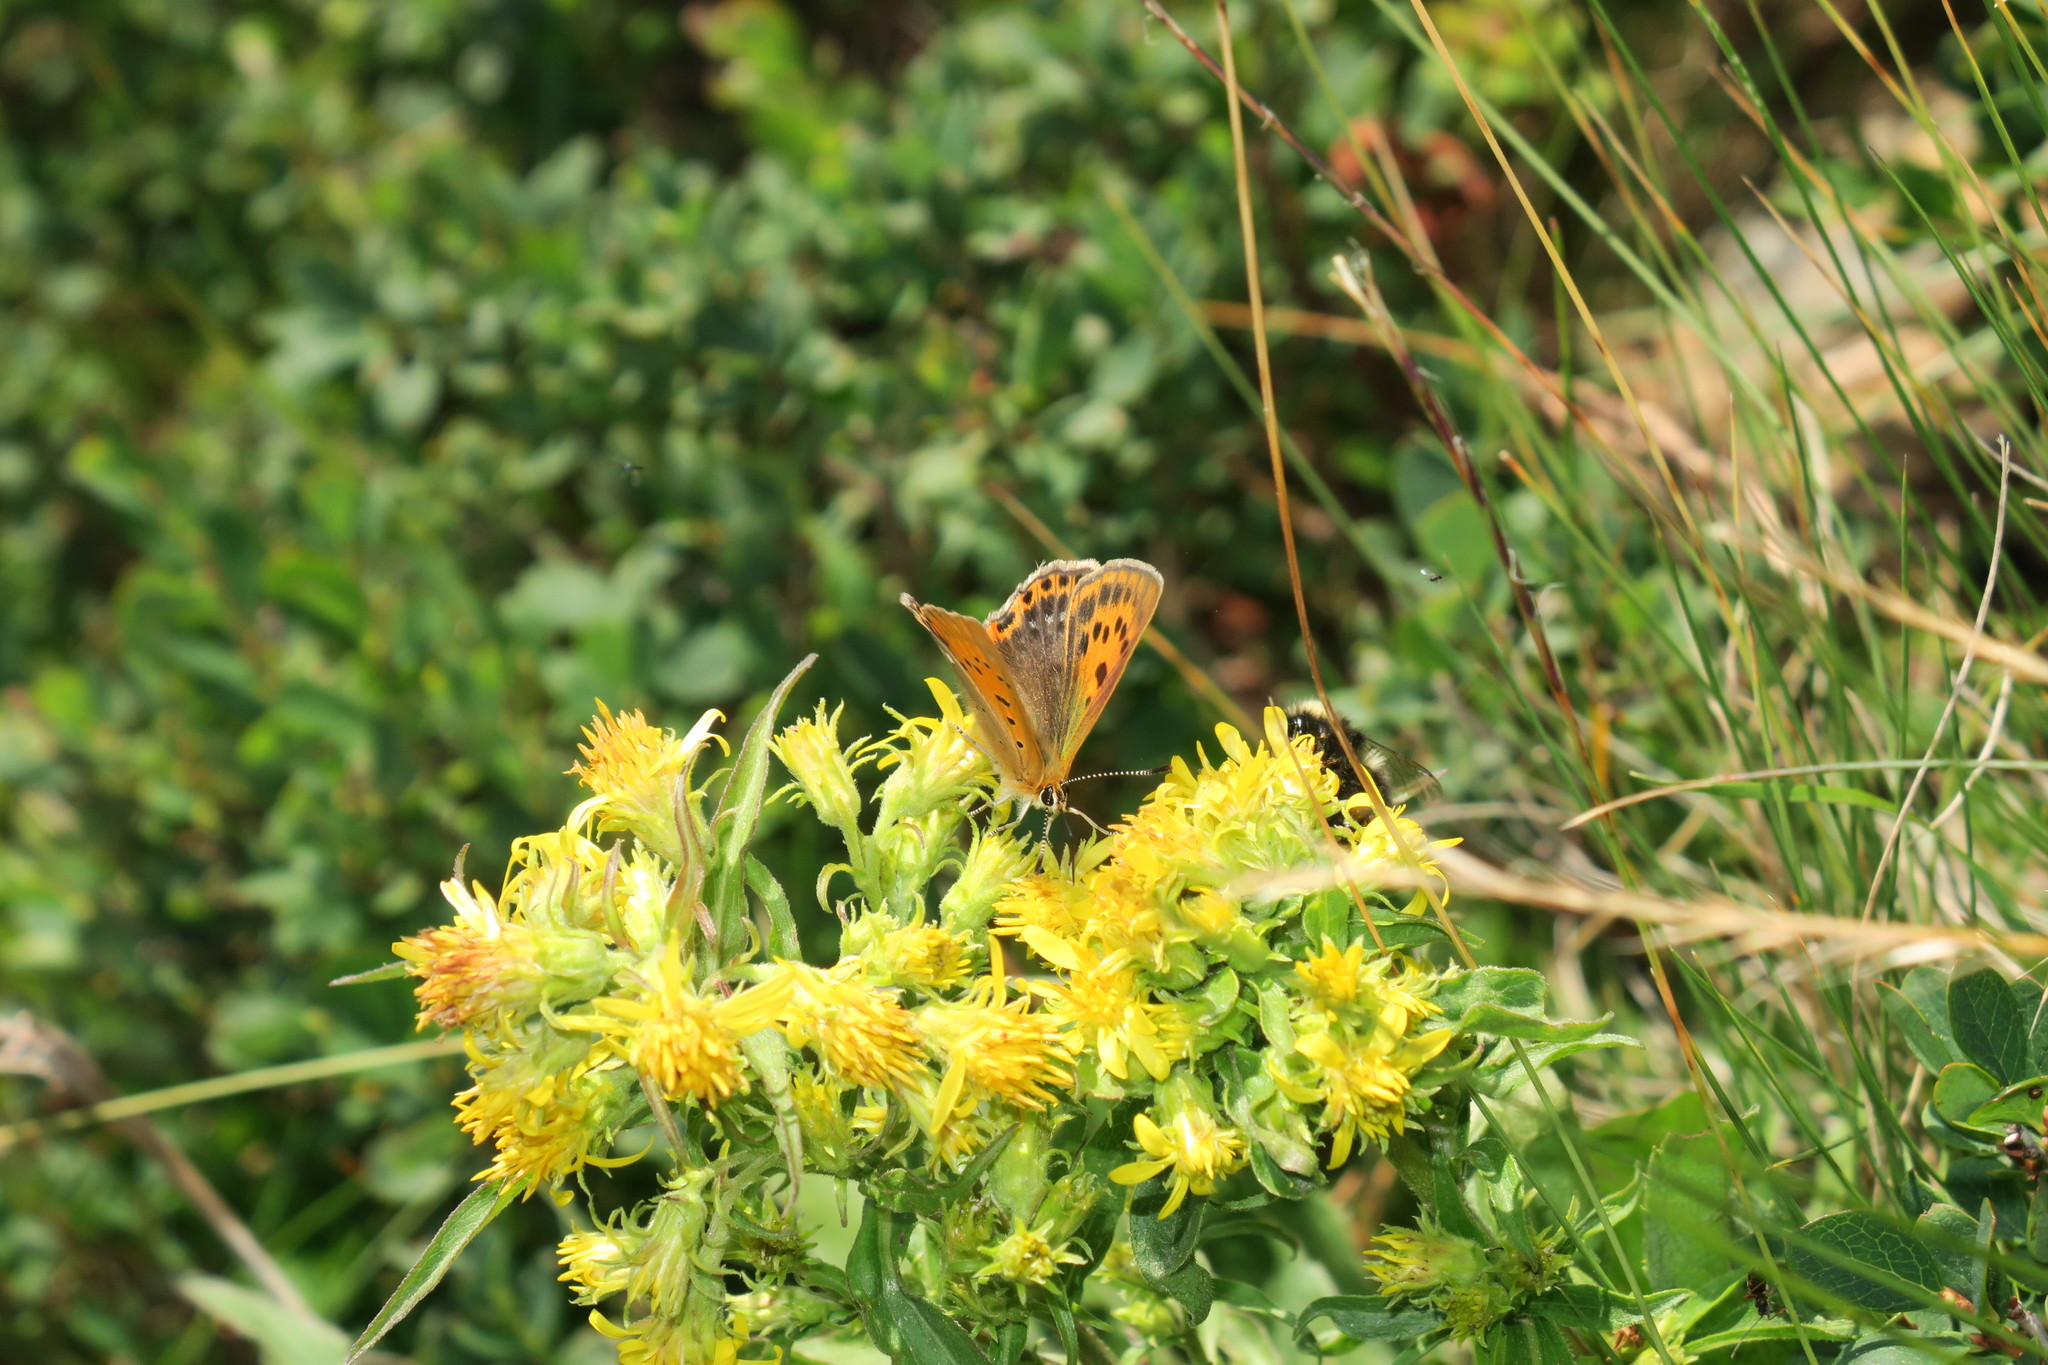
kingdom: Animalia
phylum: Arthropoda
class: Insecta
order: Lepidoptera
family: Lycaenidae
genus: Lycaena
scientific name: Lycaena virgaureae
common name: Scarce copper
